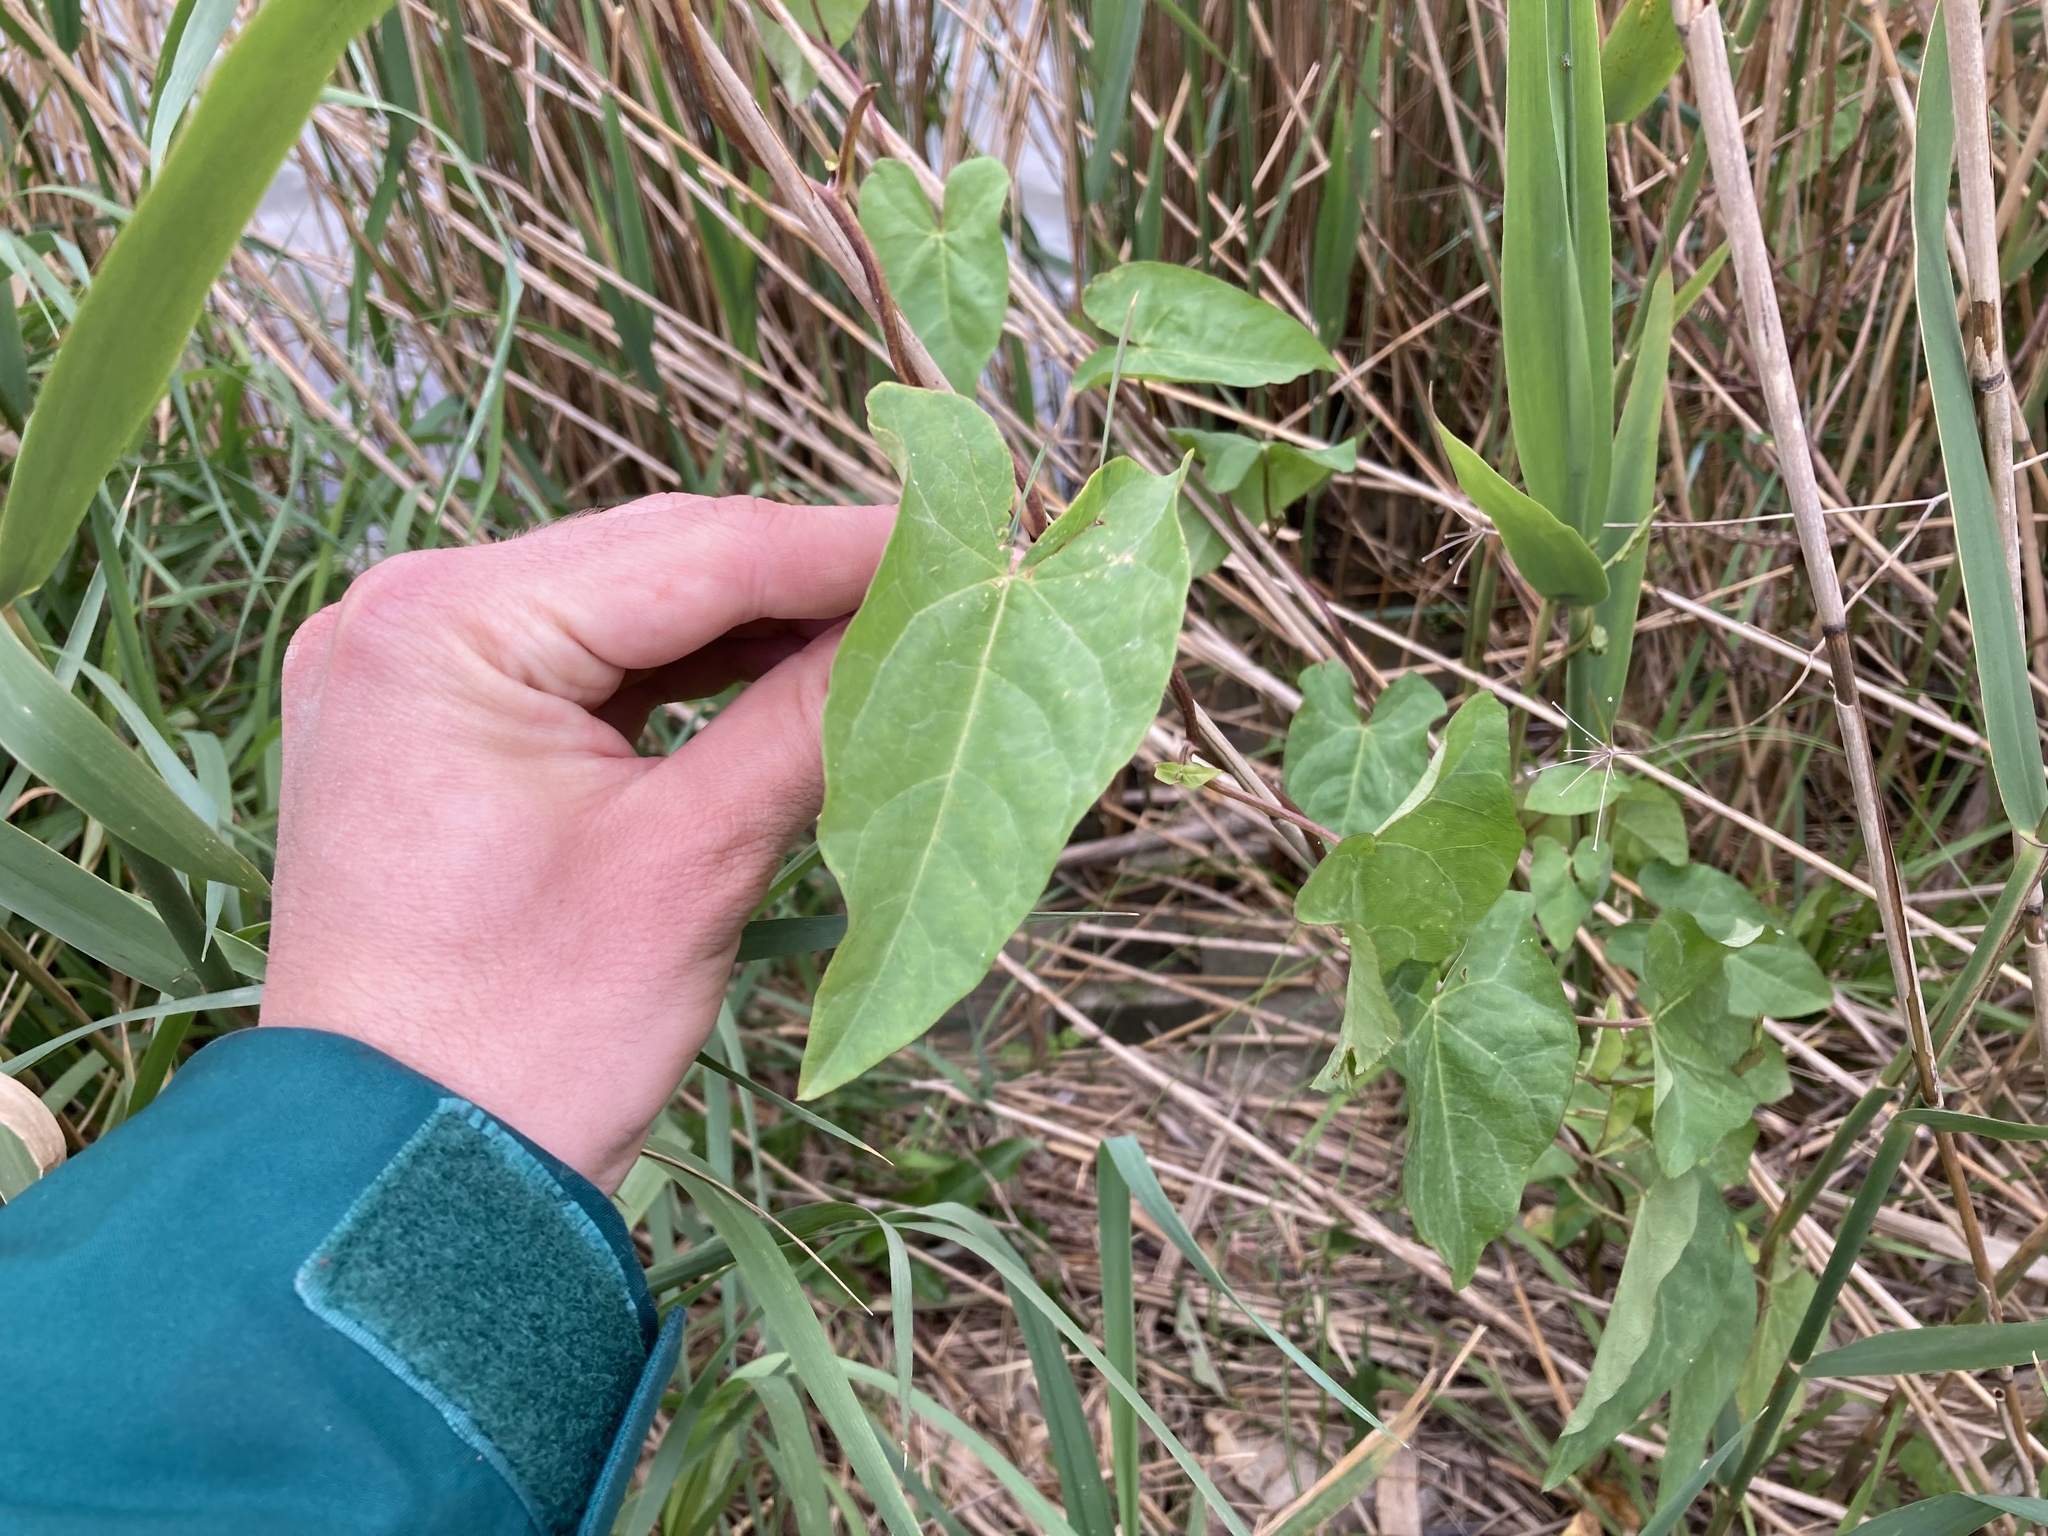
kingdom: Plantae
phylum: Tracheophyta
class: Magnoliopsida
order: Solanales
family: Convolvulaceae
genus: Calystegia
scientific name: Calystegia sepium
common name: Hedge bindweed
